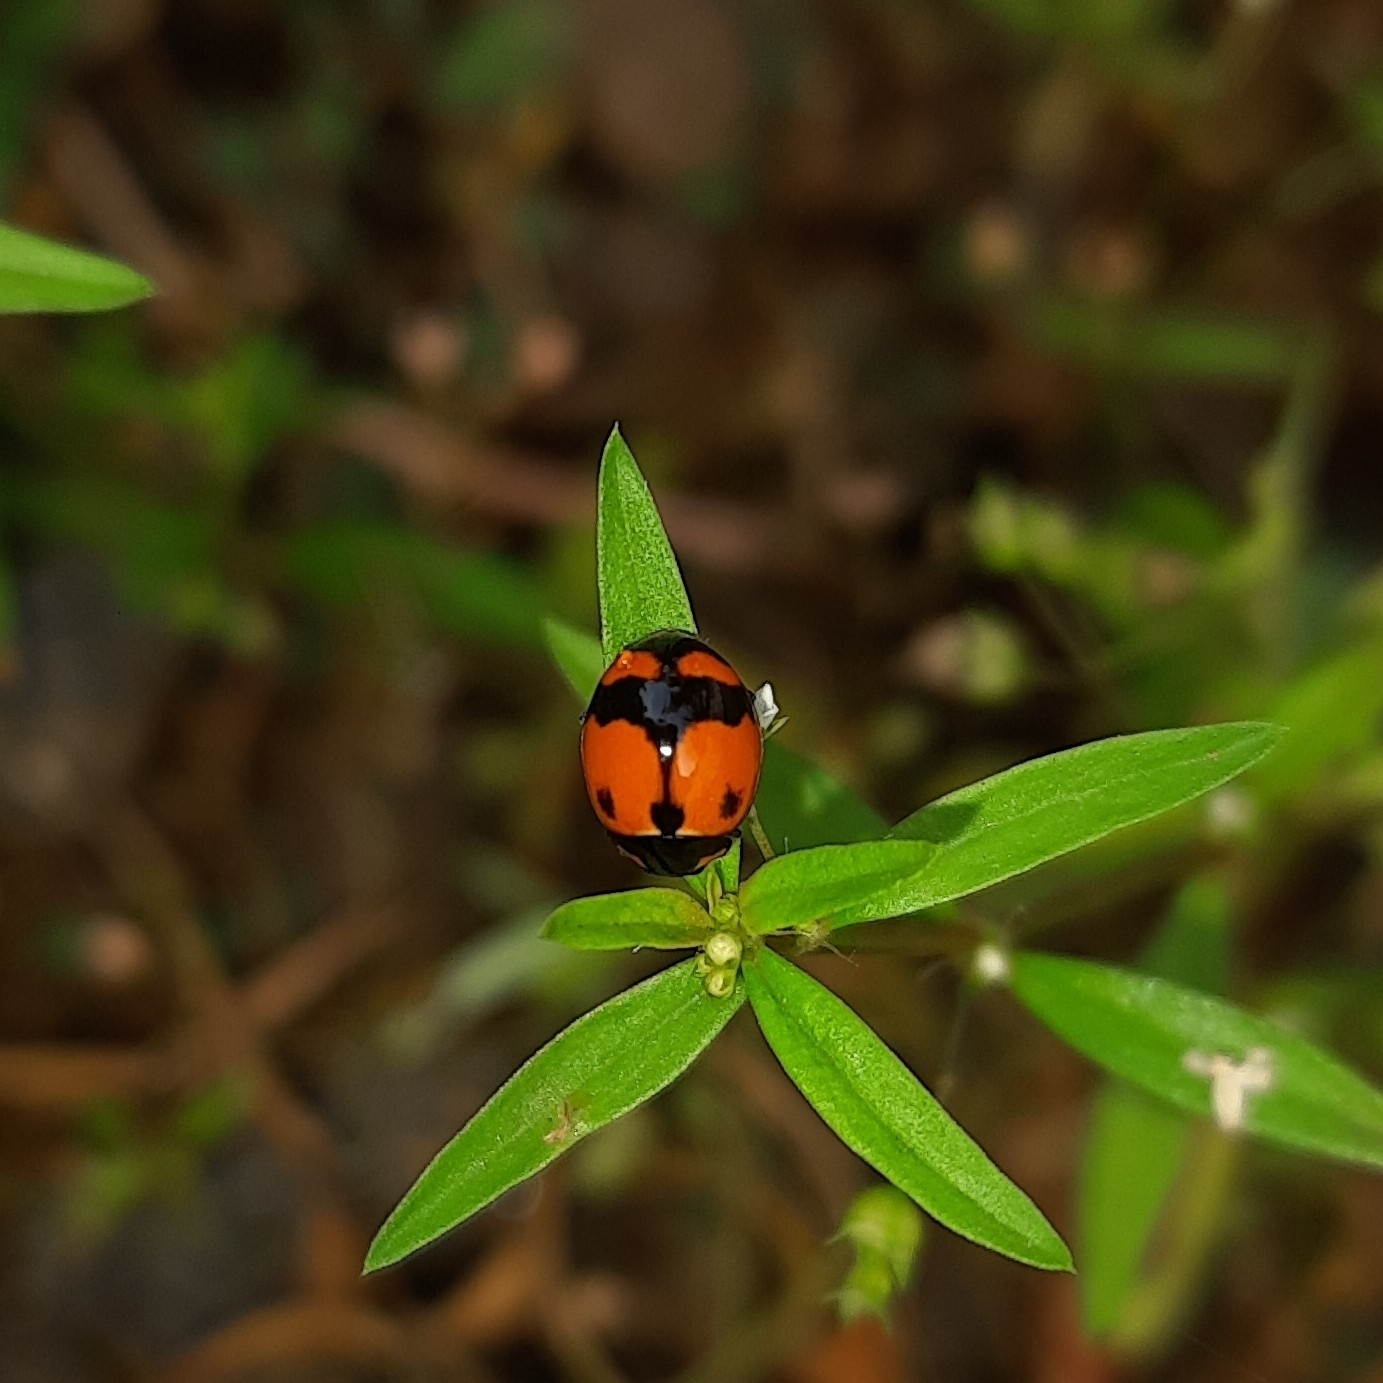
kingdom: Animalia
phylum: Arthropoda
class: Insecta
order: Coleoptera
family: Coccinellidae
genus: Coccinella
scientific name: Coccinella transversalis
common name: Transverse lady beetle
